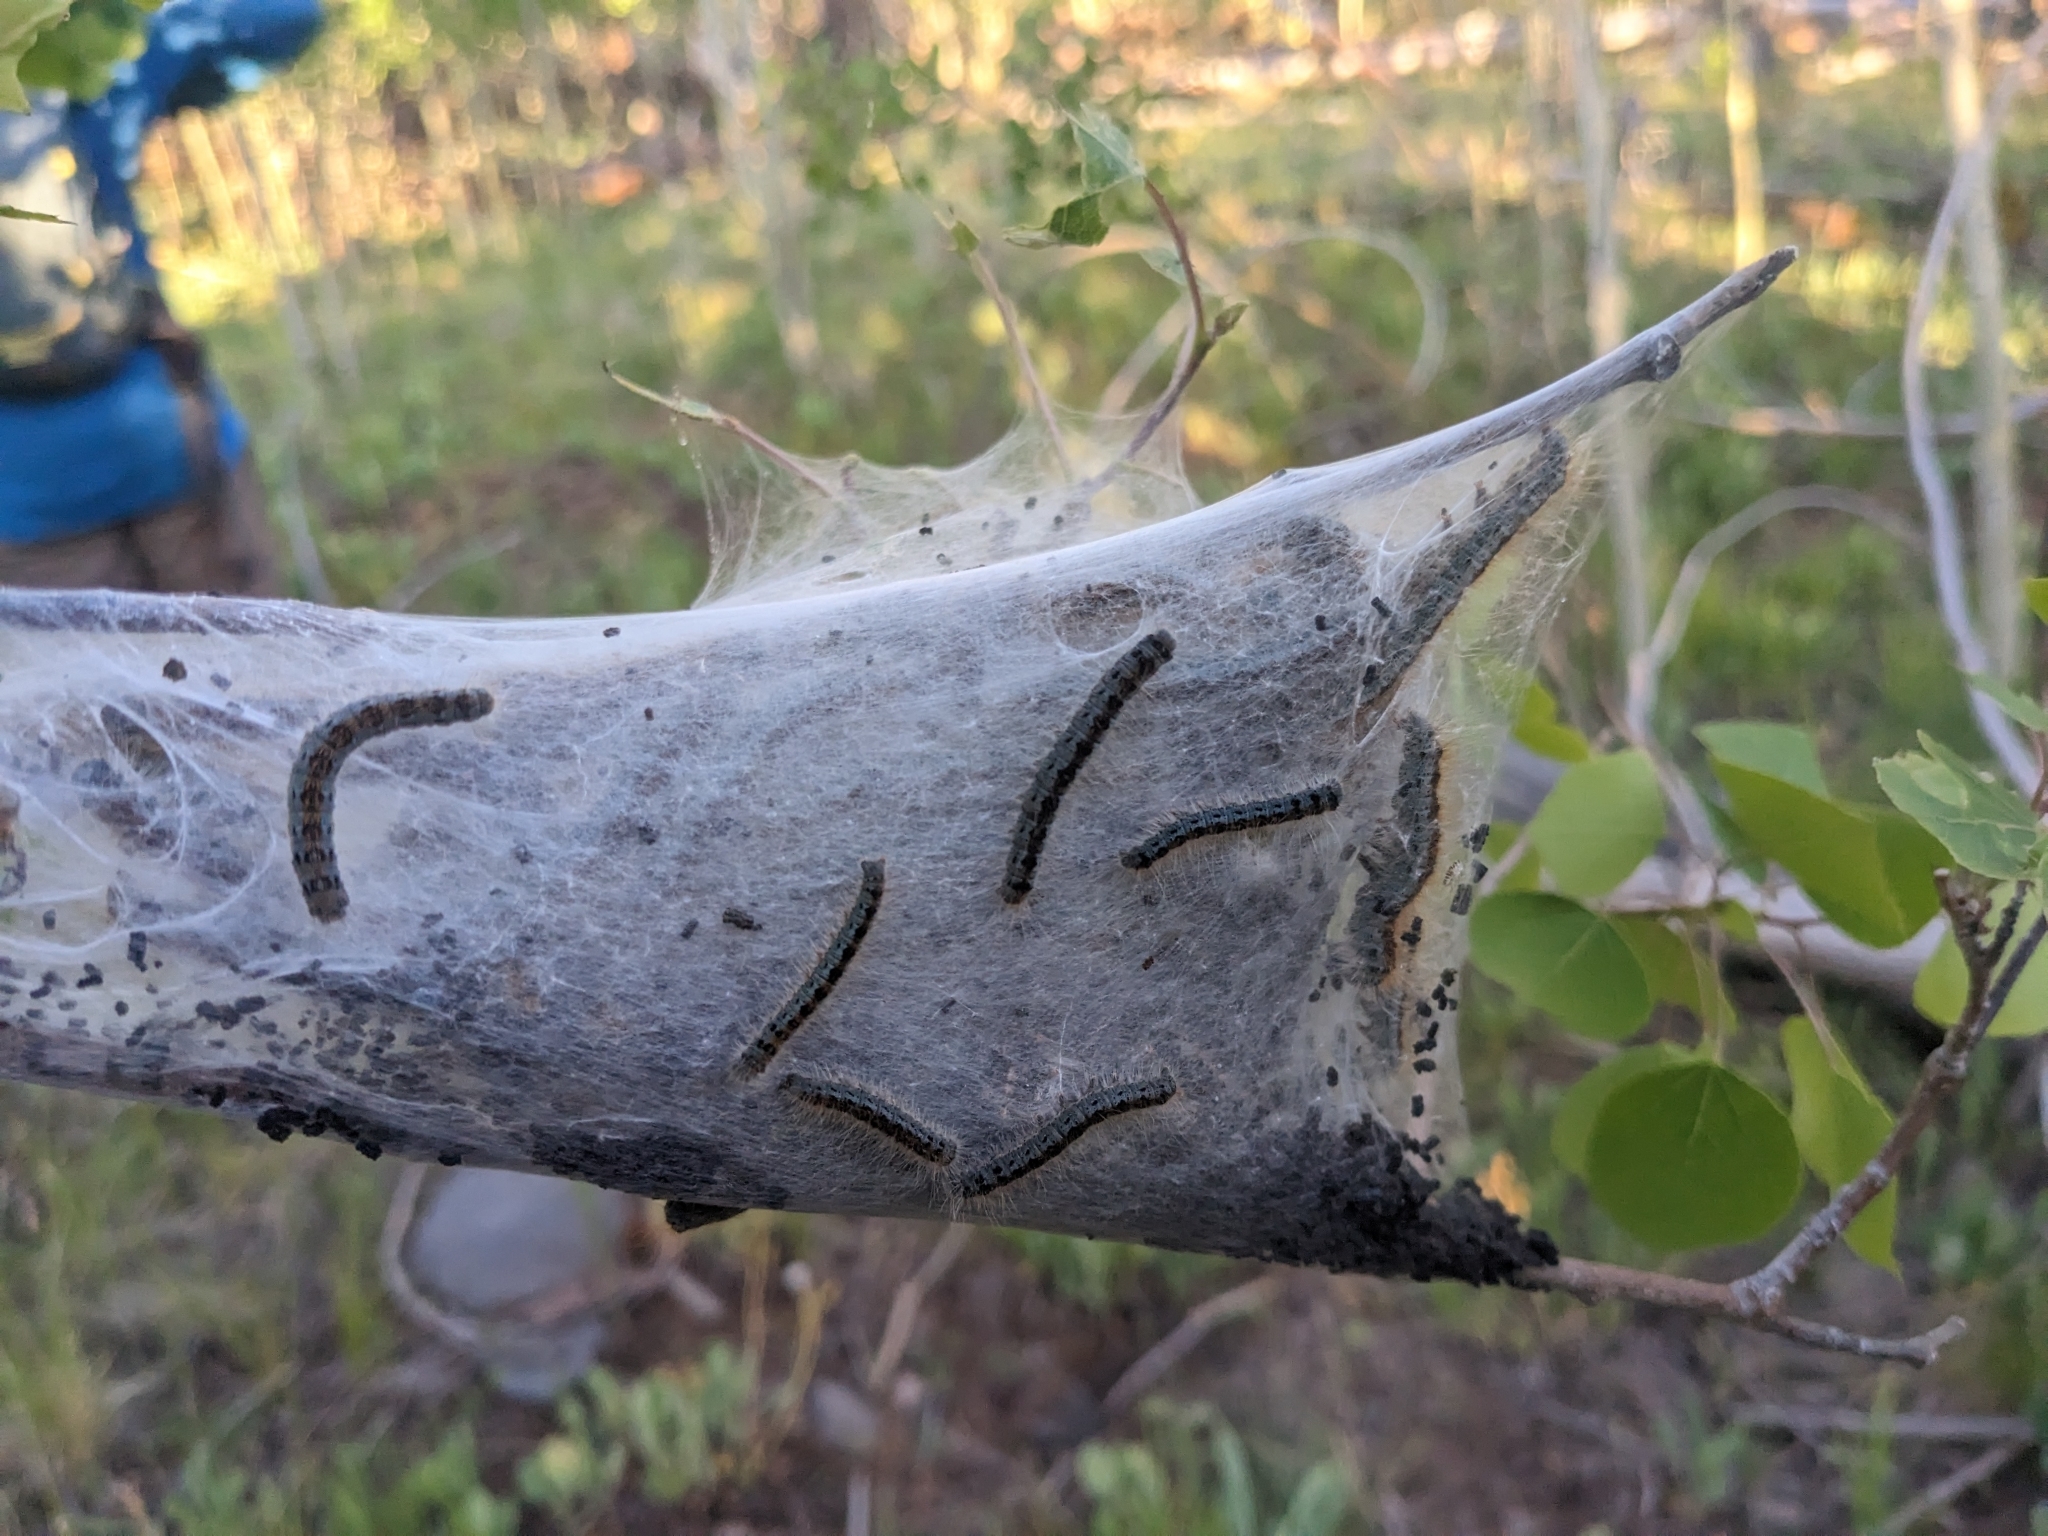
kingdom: Animalia
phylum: Arthropoda
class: Insecta
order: Lepidoptera
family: Lasiocampidae
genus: Malacosoma
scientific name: Malacosoma incurva
